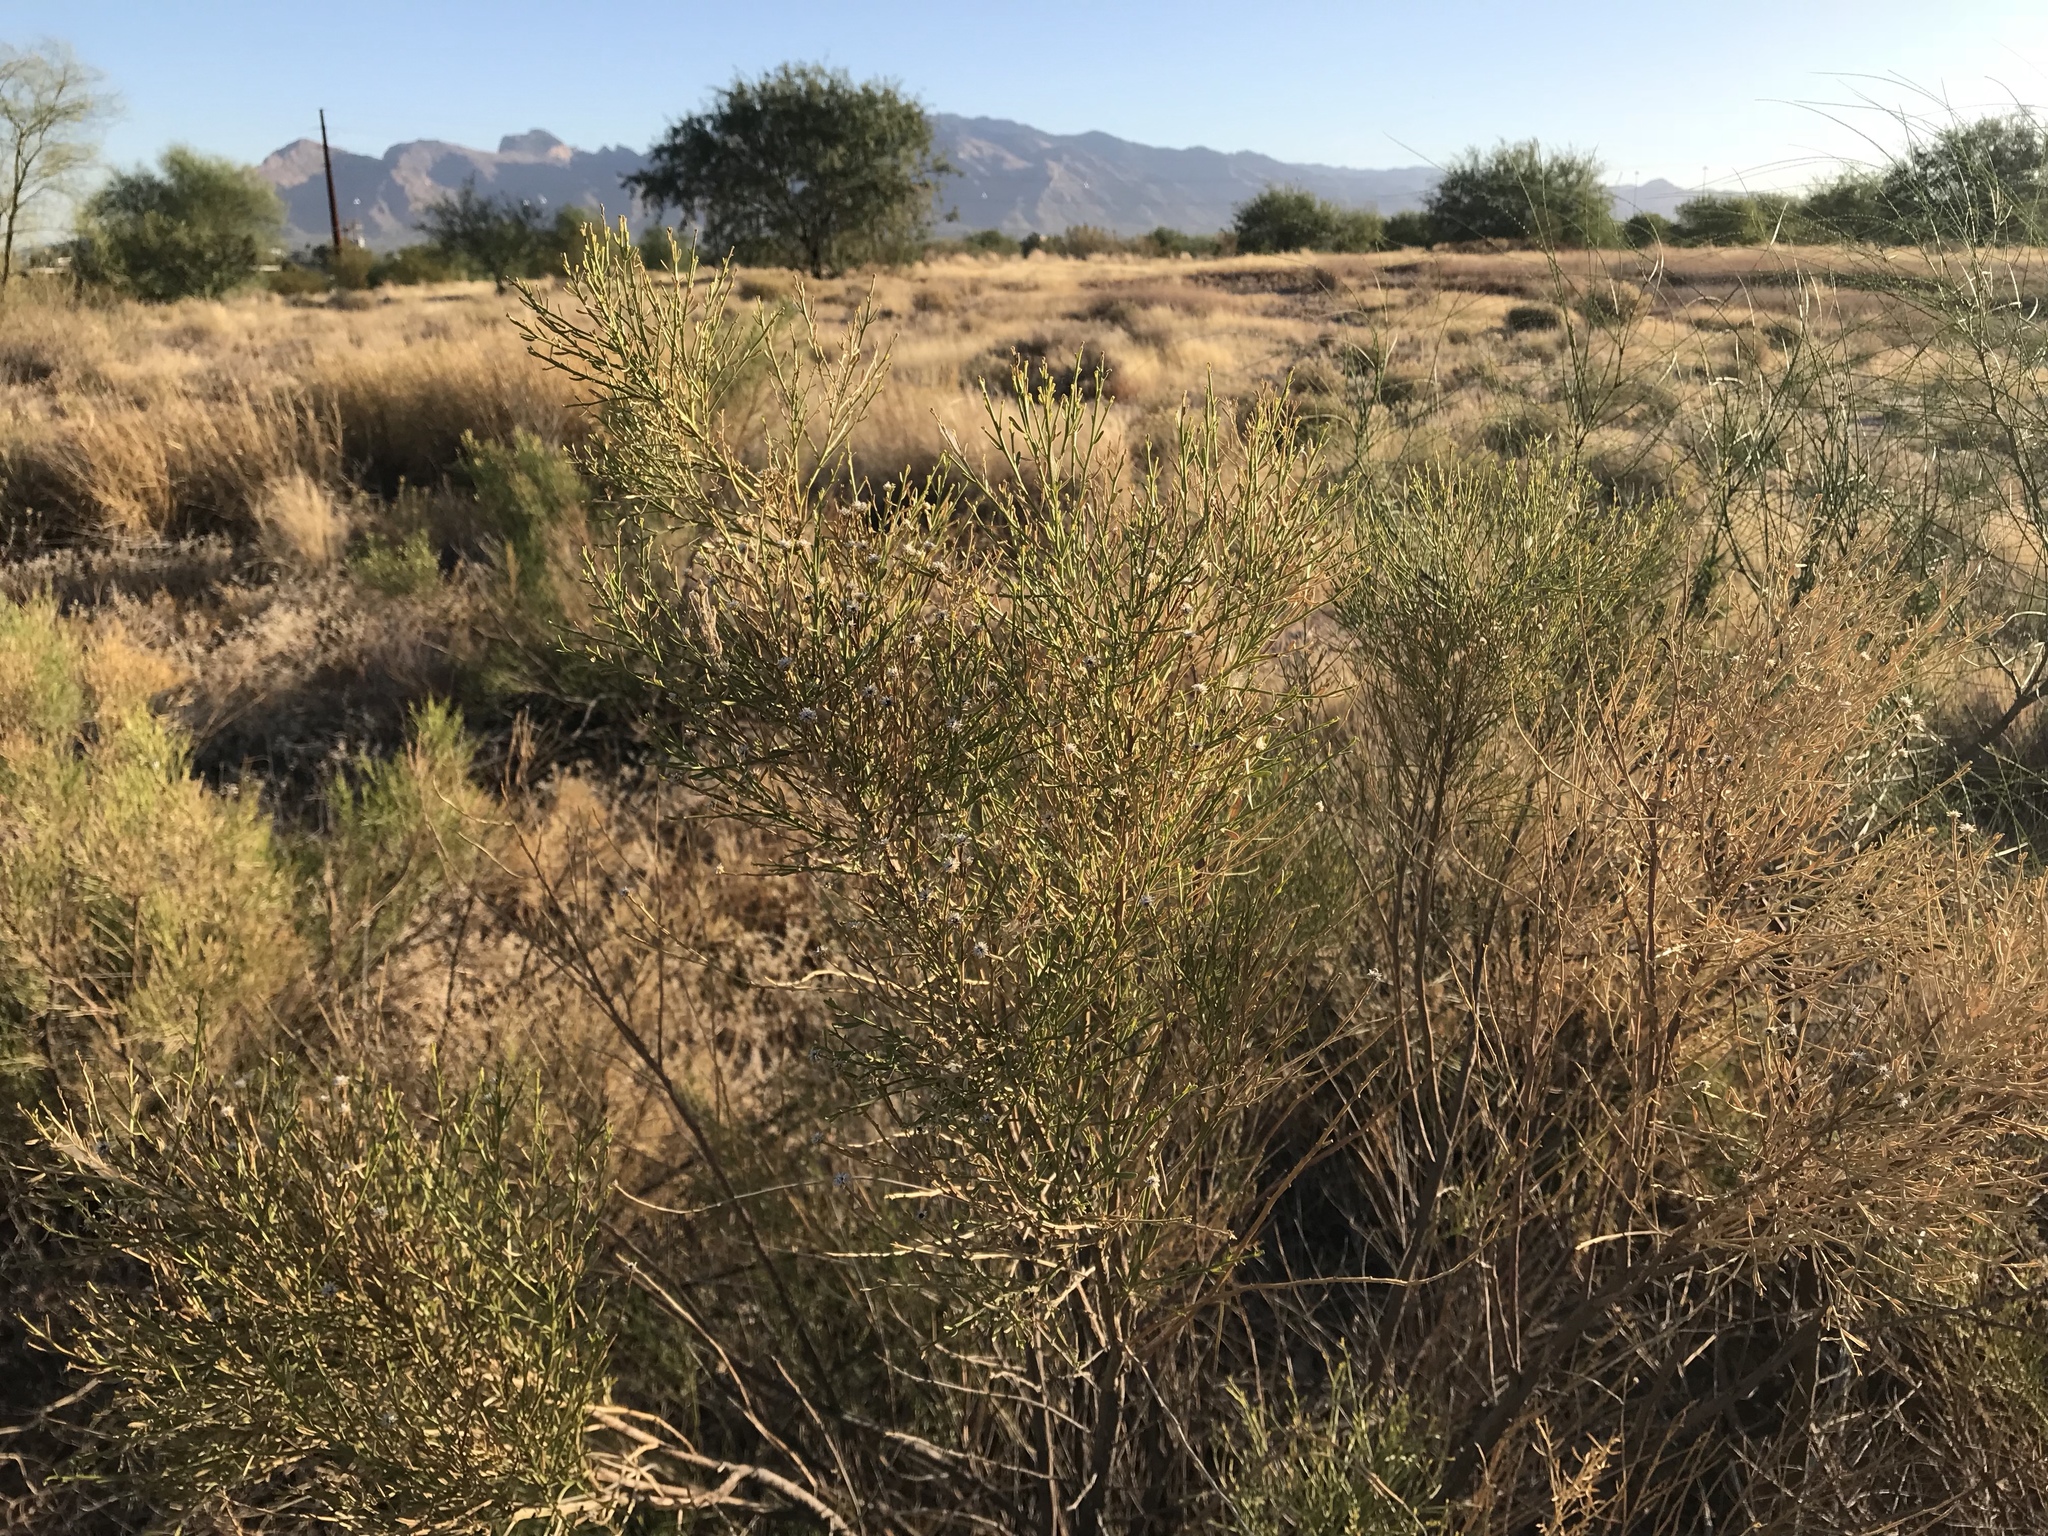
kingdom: Plantae
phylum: Tracheophyta
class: Magnoliopsida
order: Asterales
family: Asteraceae
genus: Baccharis
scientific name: Baccharis sarothroides
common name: Desert-broom
